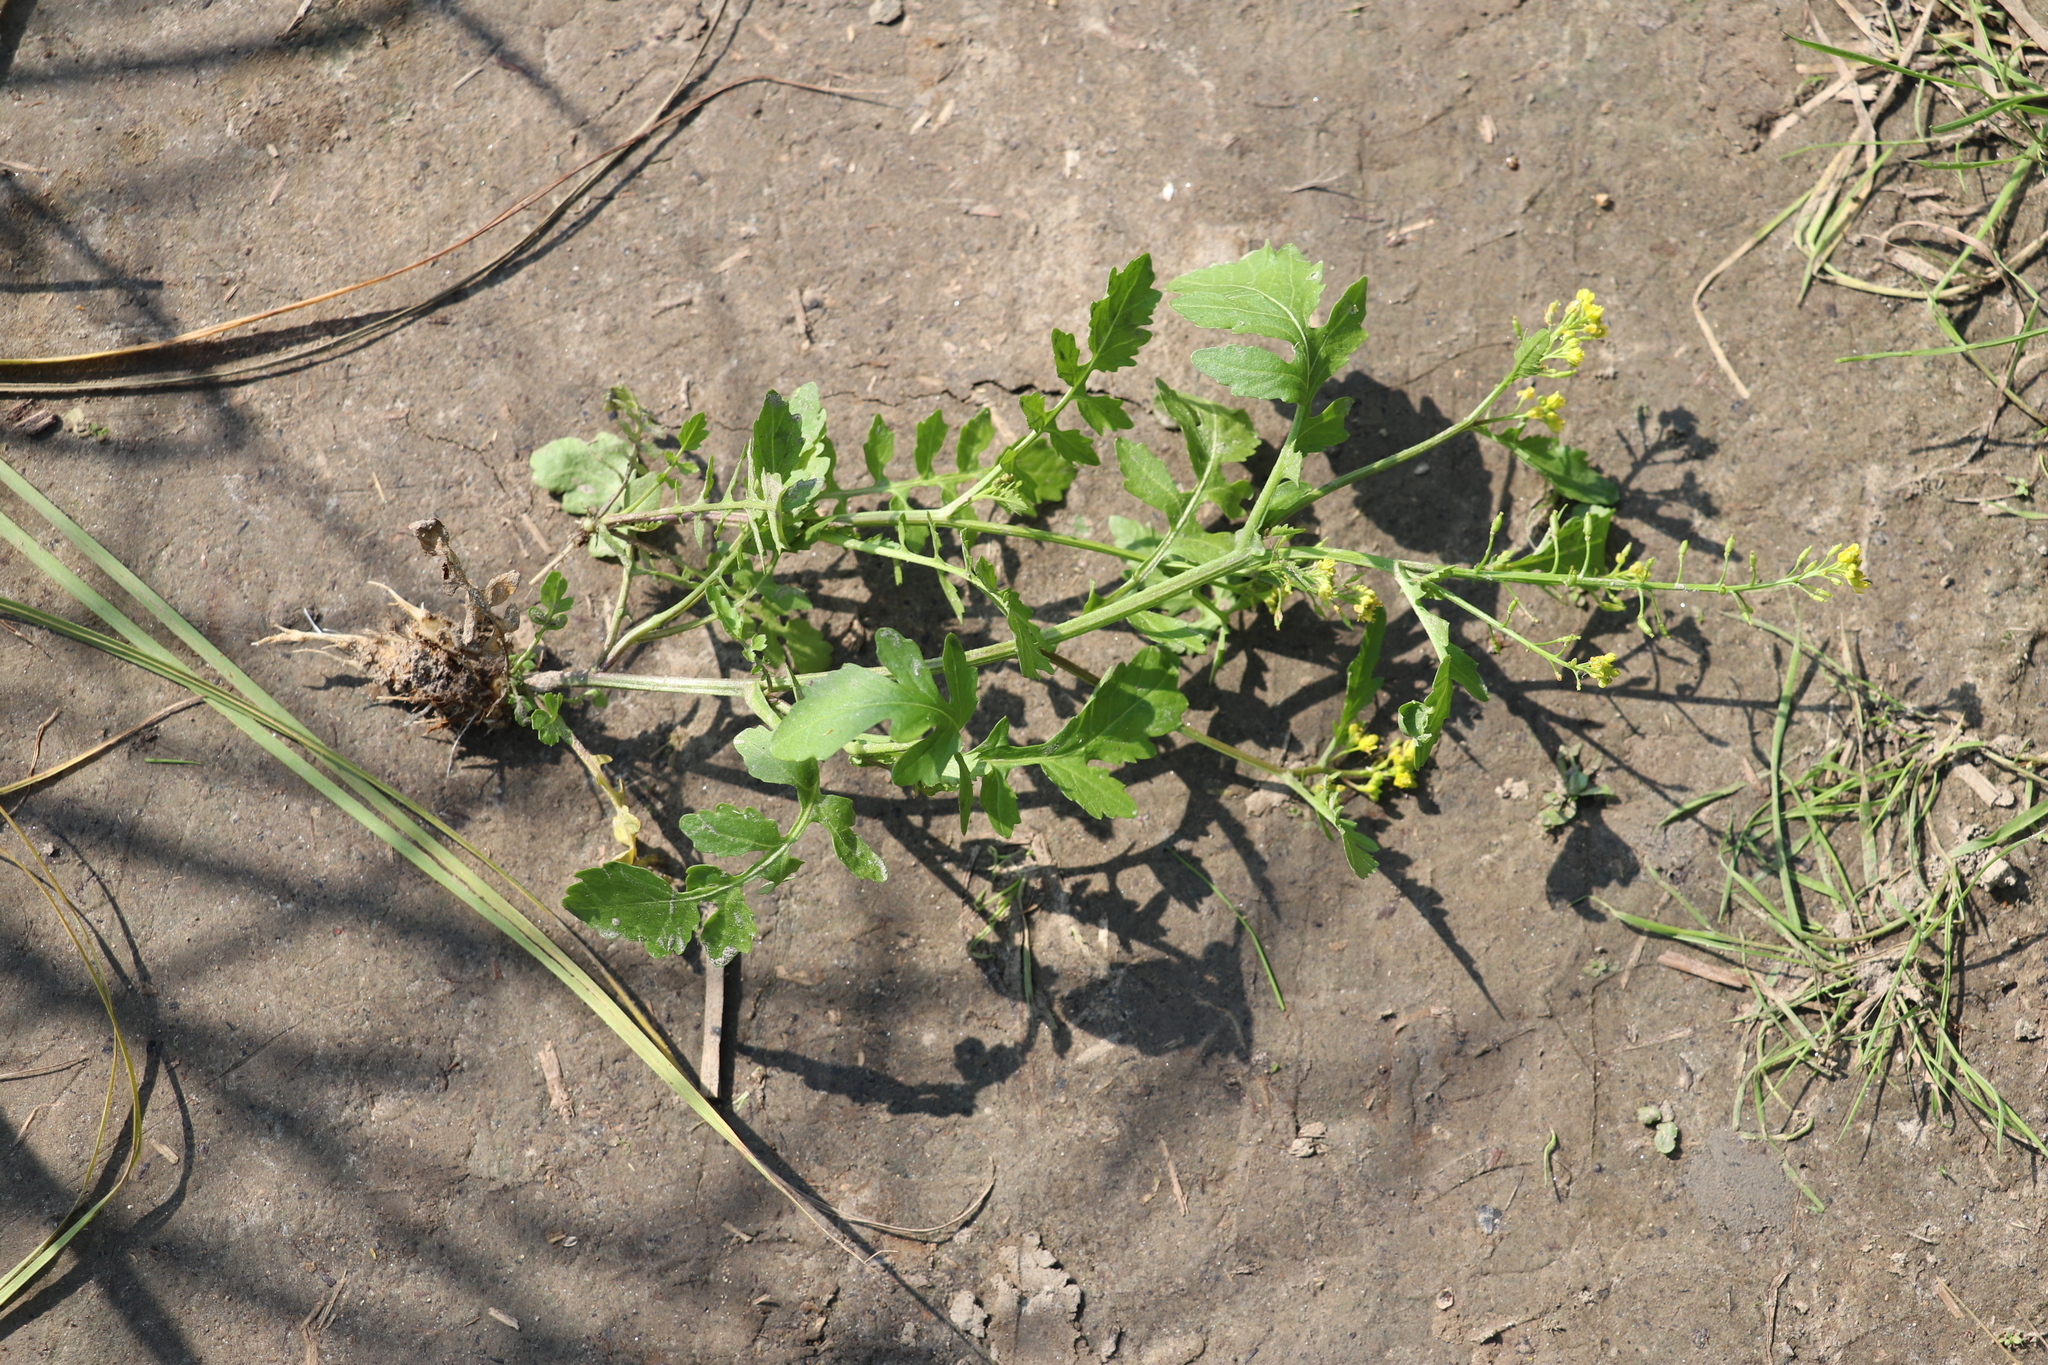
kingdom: Plantae
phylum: Tracheophyta
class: Magnoliopsida
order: Brassicales
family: Brassicaceae
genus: Rorippa
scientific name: Rorippa palustris
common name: Marsh yellow-cress
